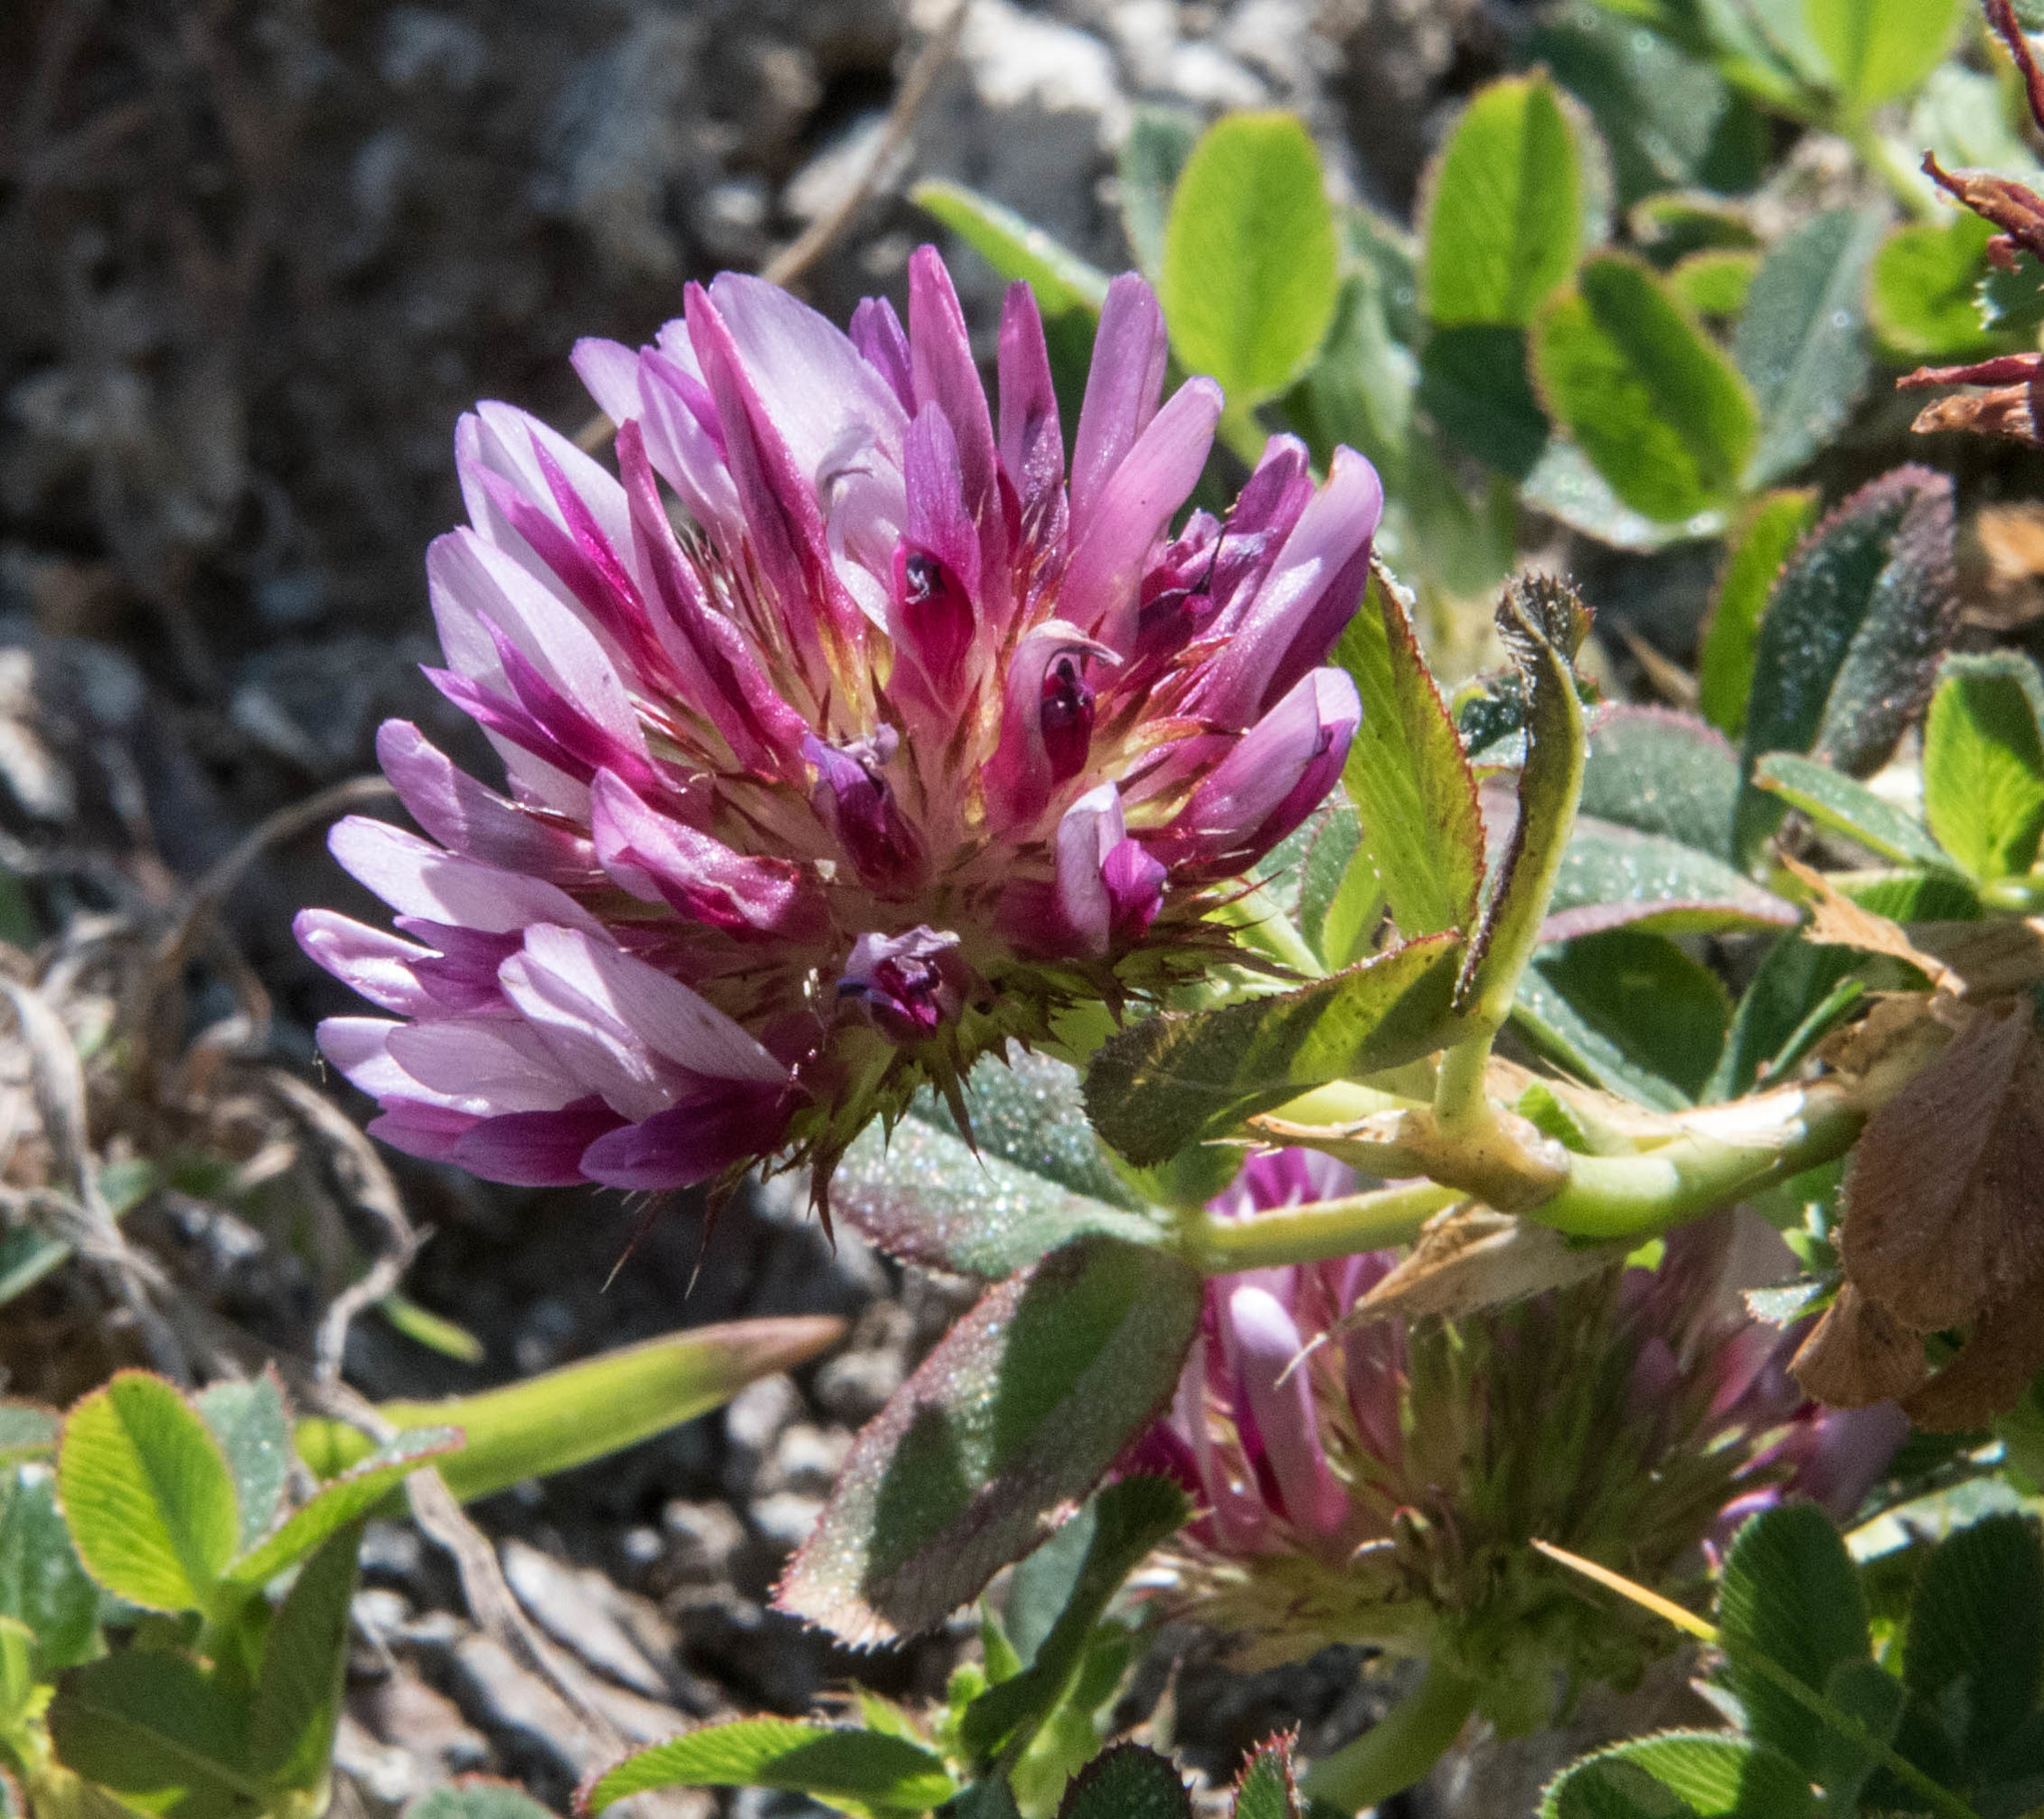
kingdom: Plantae
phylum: Tracheophyta
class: Magnoliopsida
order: Fabales
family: Fabaceae
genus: Trifolium
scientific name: Trifolium wormskioldii
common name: Springbank clover
